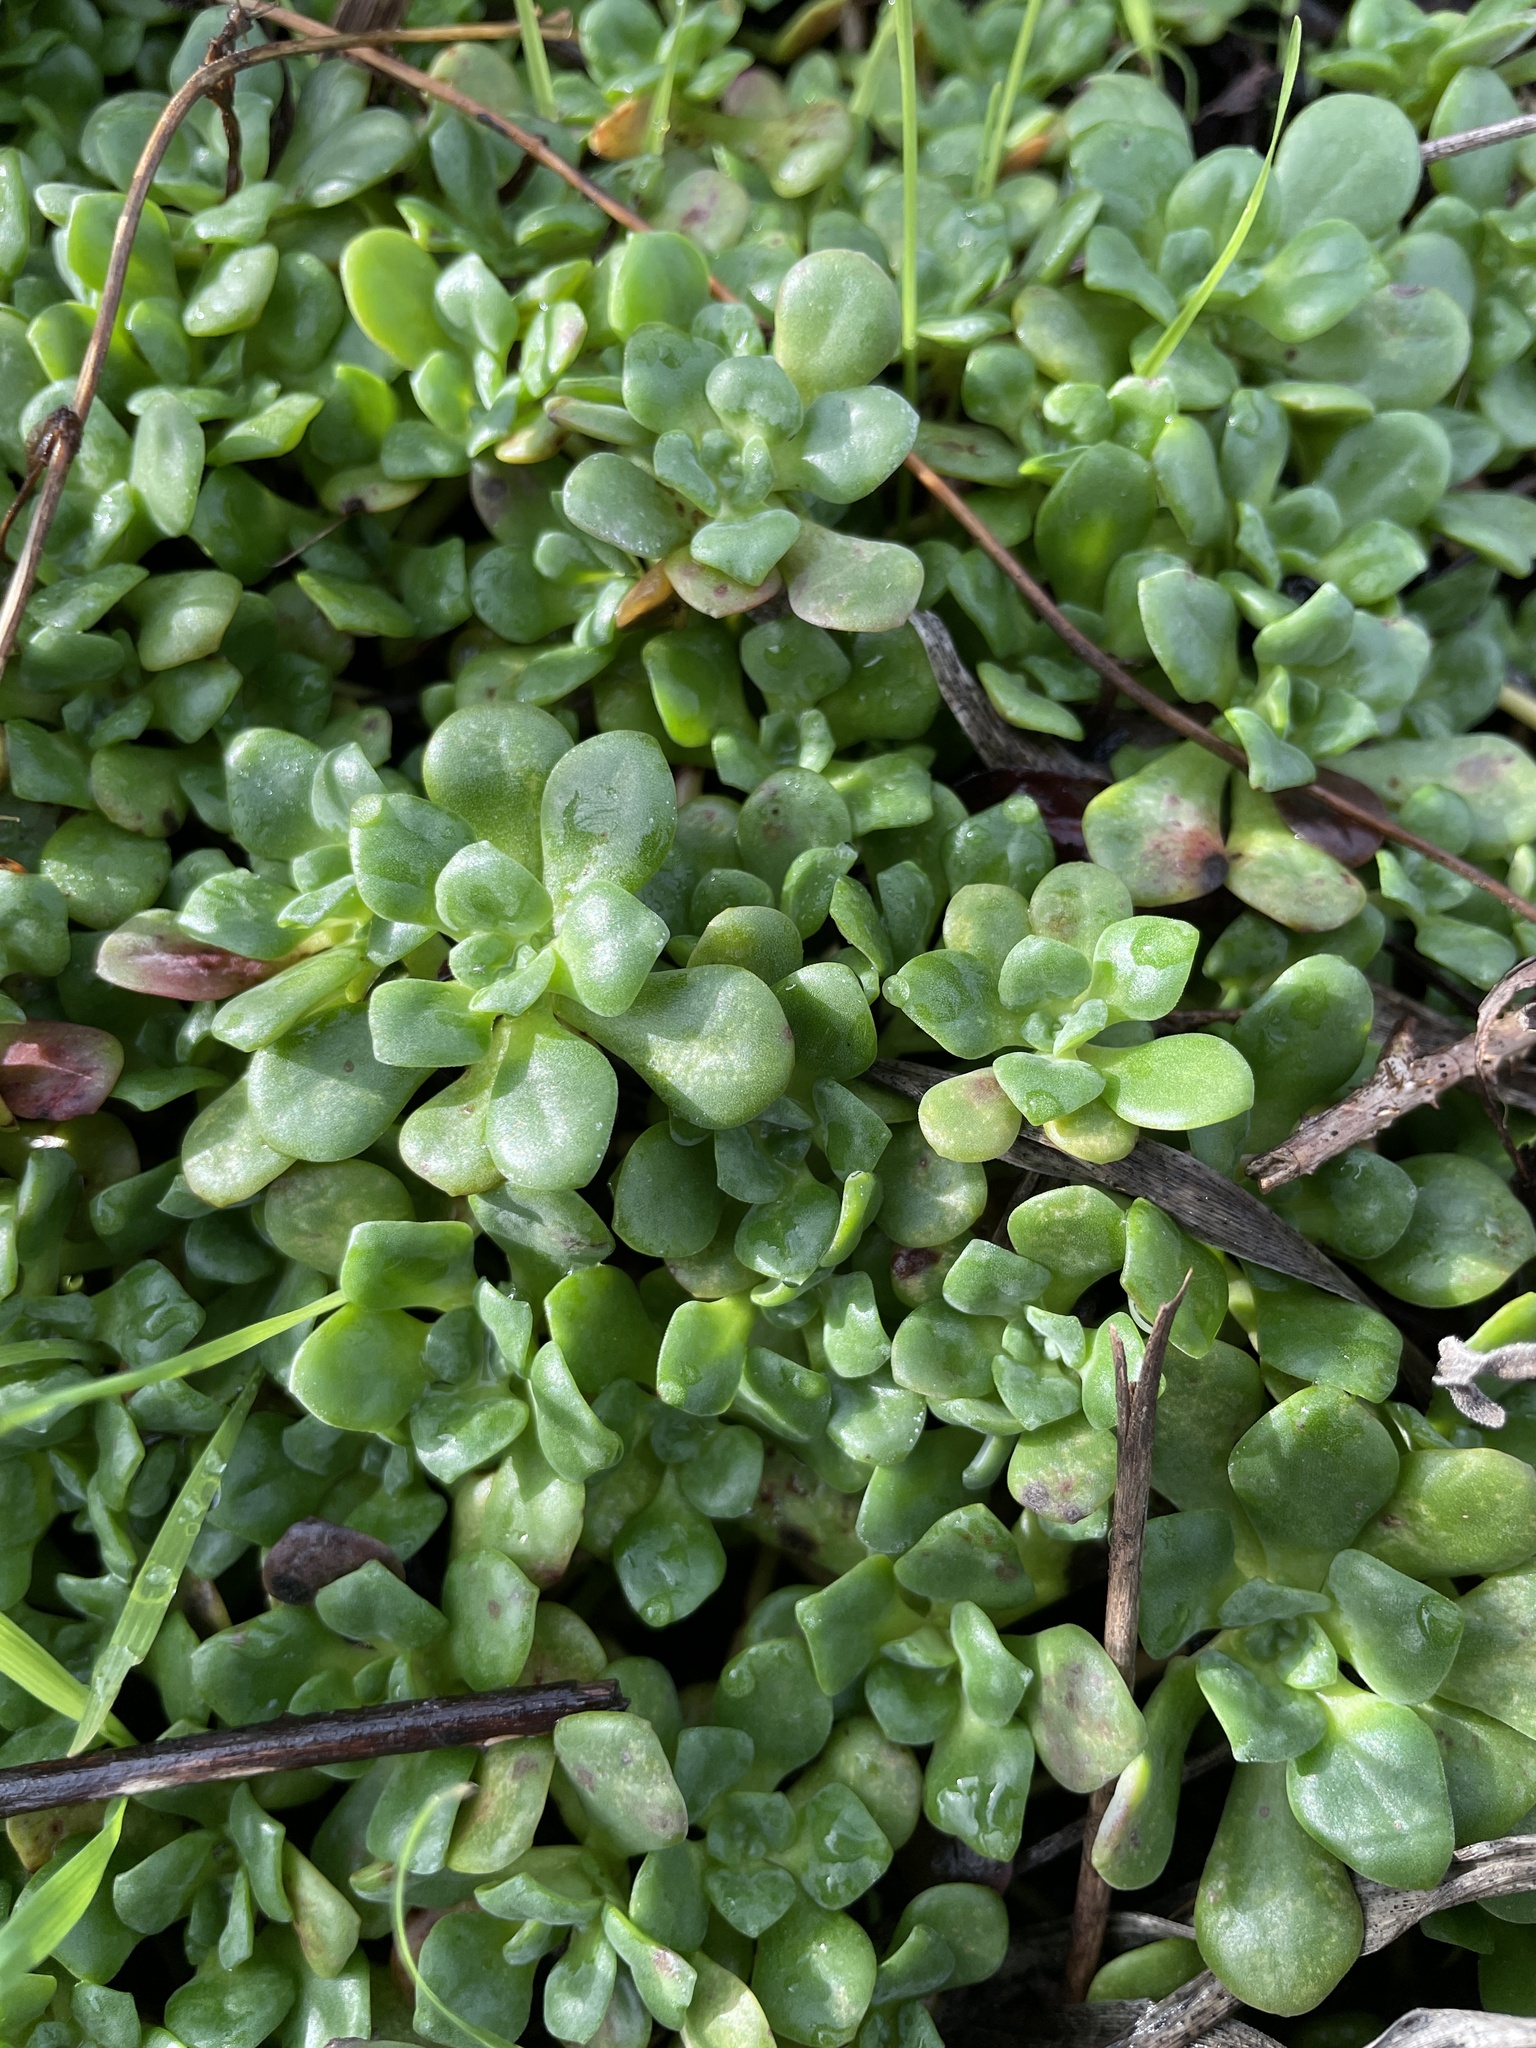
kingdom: Plantae
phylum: Tracheophyta
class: Magnoliopsida
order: Saxifragales
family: Crassulaceae
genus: Sedum
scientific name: Sedum spathulifolium
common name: Colorado stonecrop
